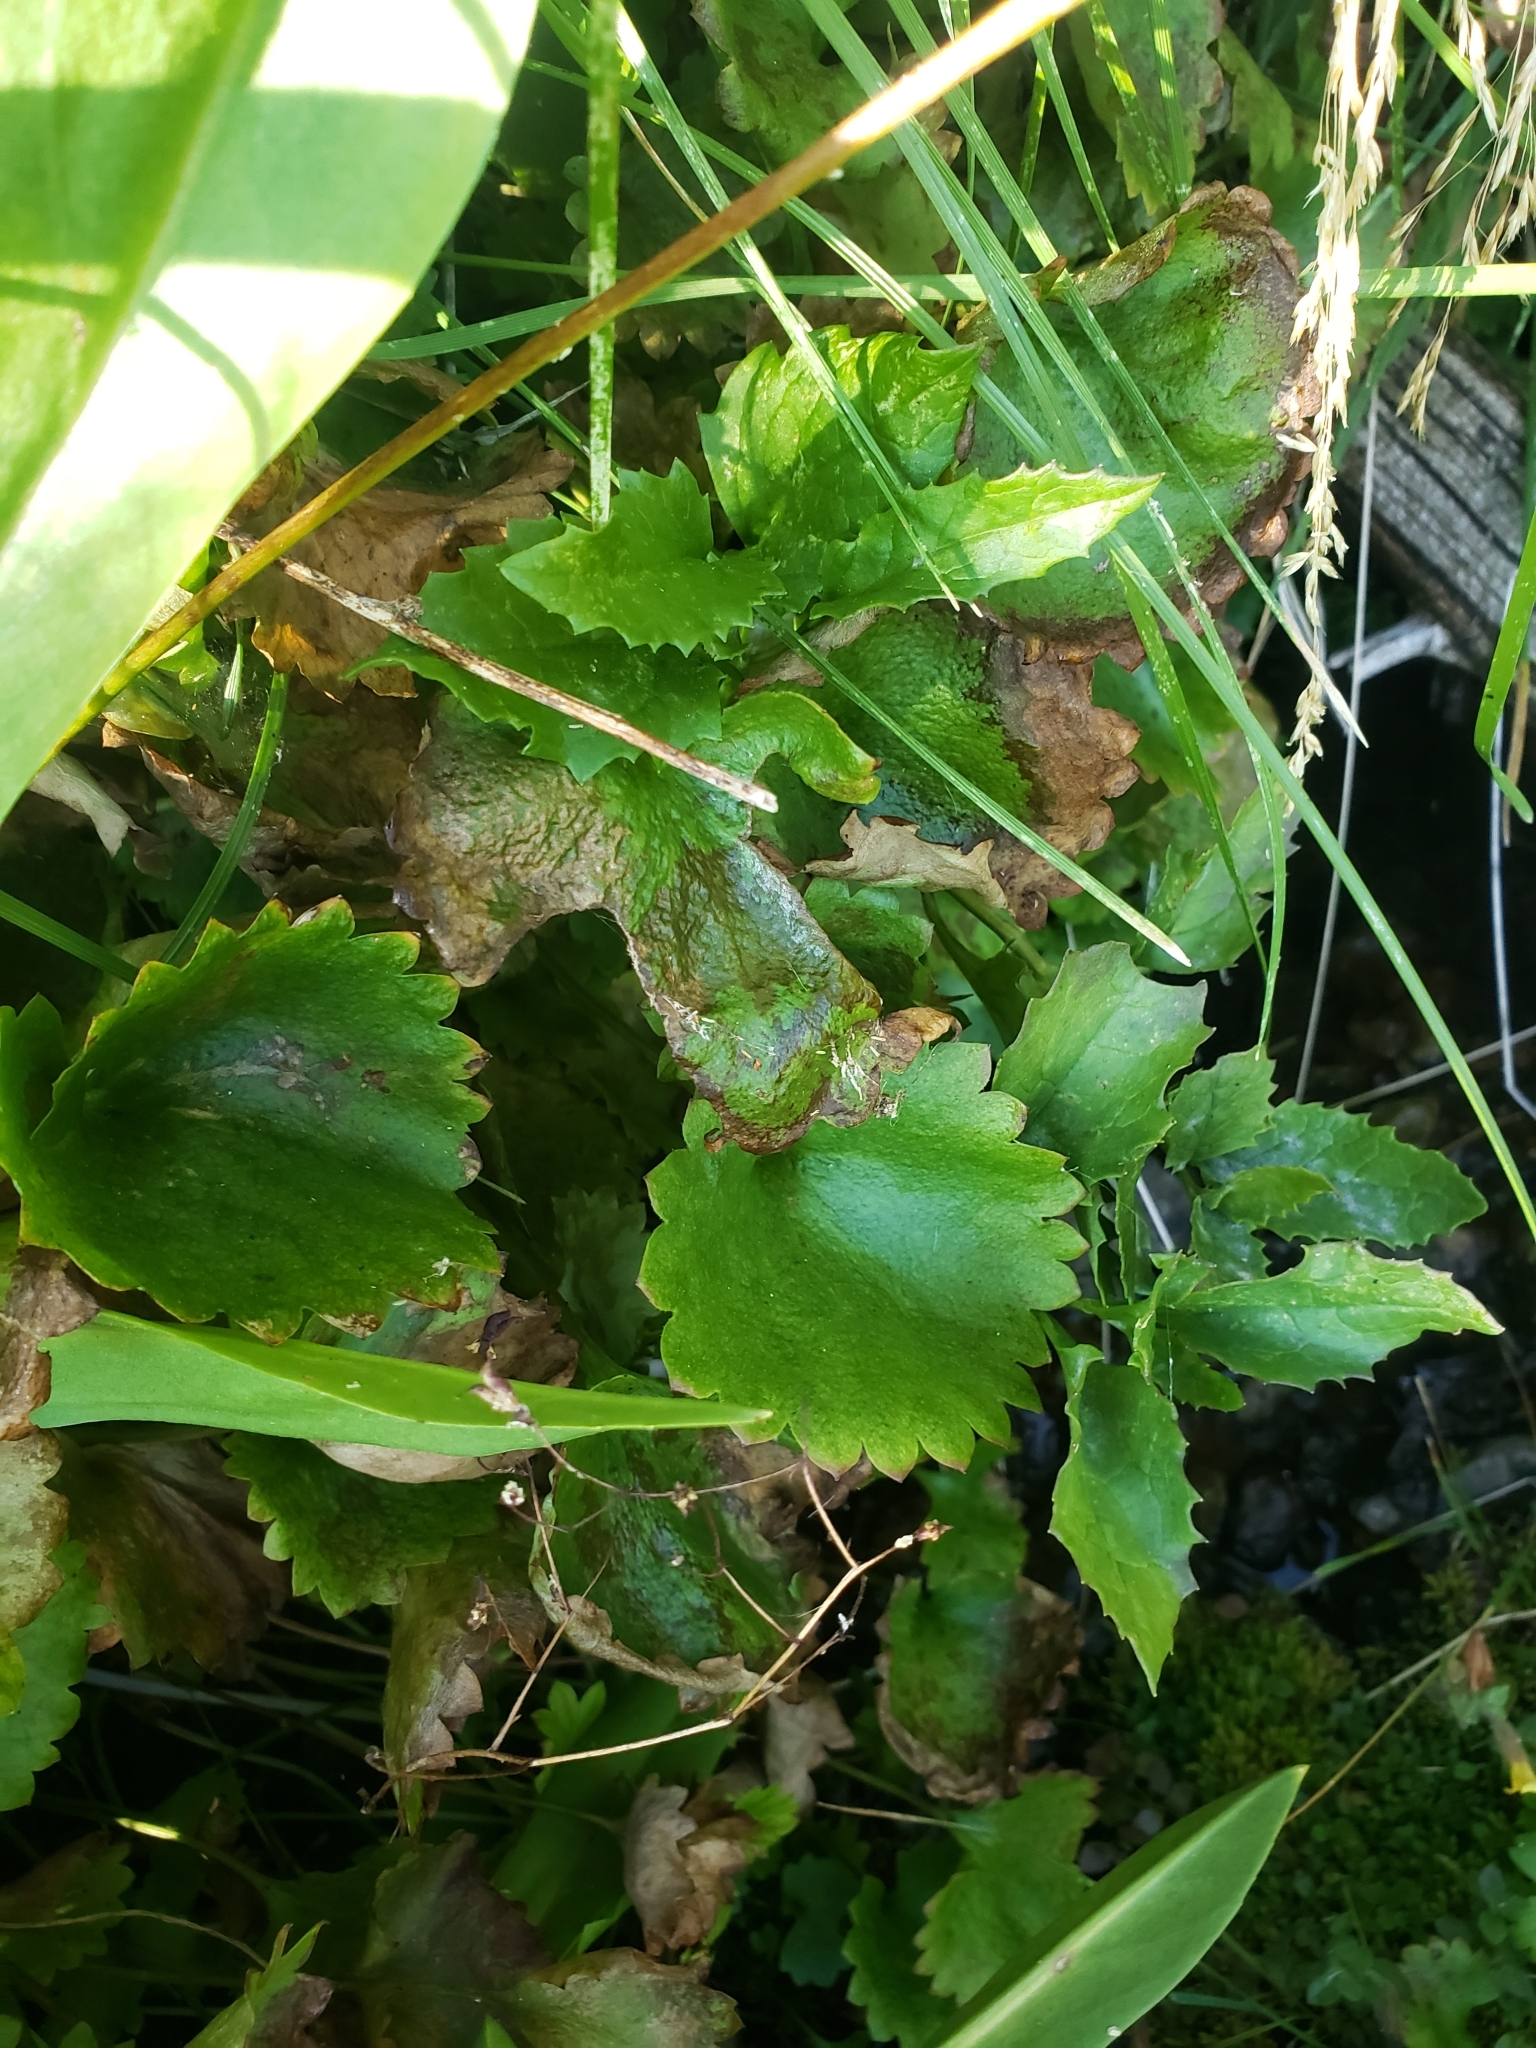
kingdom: Plantae
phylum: Tracheophyta
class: Magnoliopsida
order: Saxifragales
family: Saxifragaceae
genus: Micranthes
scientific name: Micranthes odontoloma
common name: Brook saxifrage
